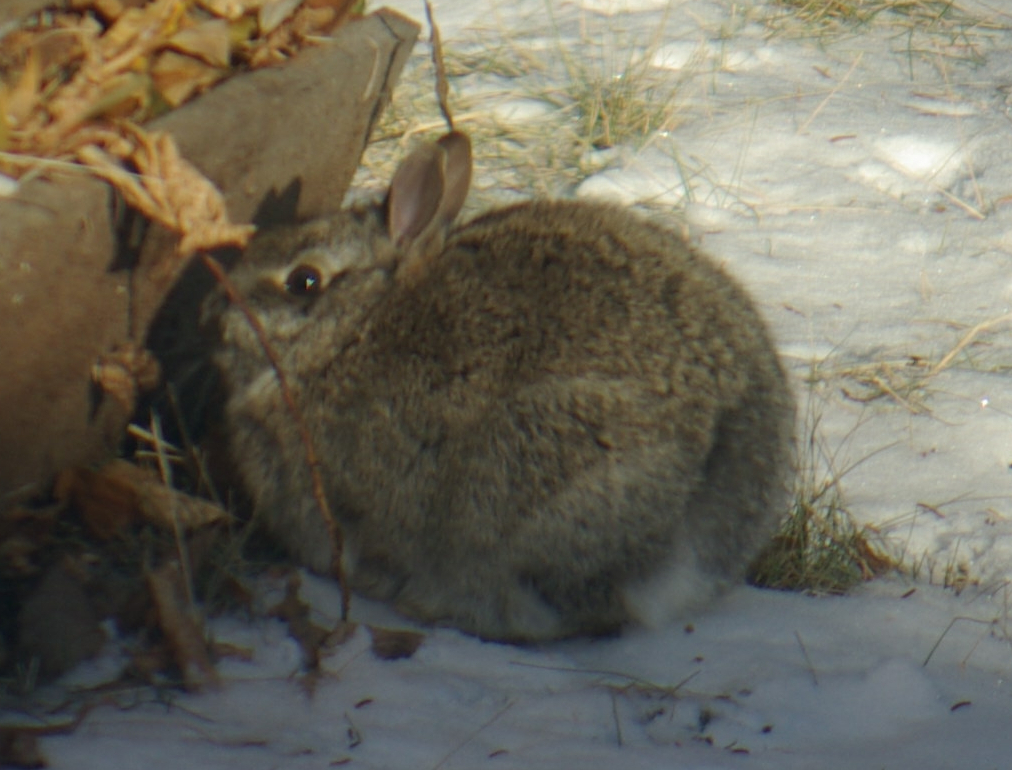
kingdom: Animalia
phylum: Chordata
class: Mammalia
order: Lagomorpha
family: Leporidae
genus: Sylvilagus
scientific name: Sylvilagus floridanus
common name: Eastern cottontail
